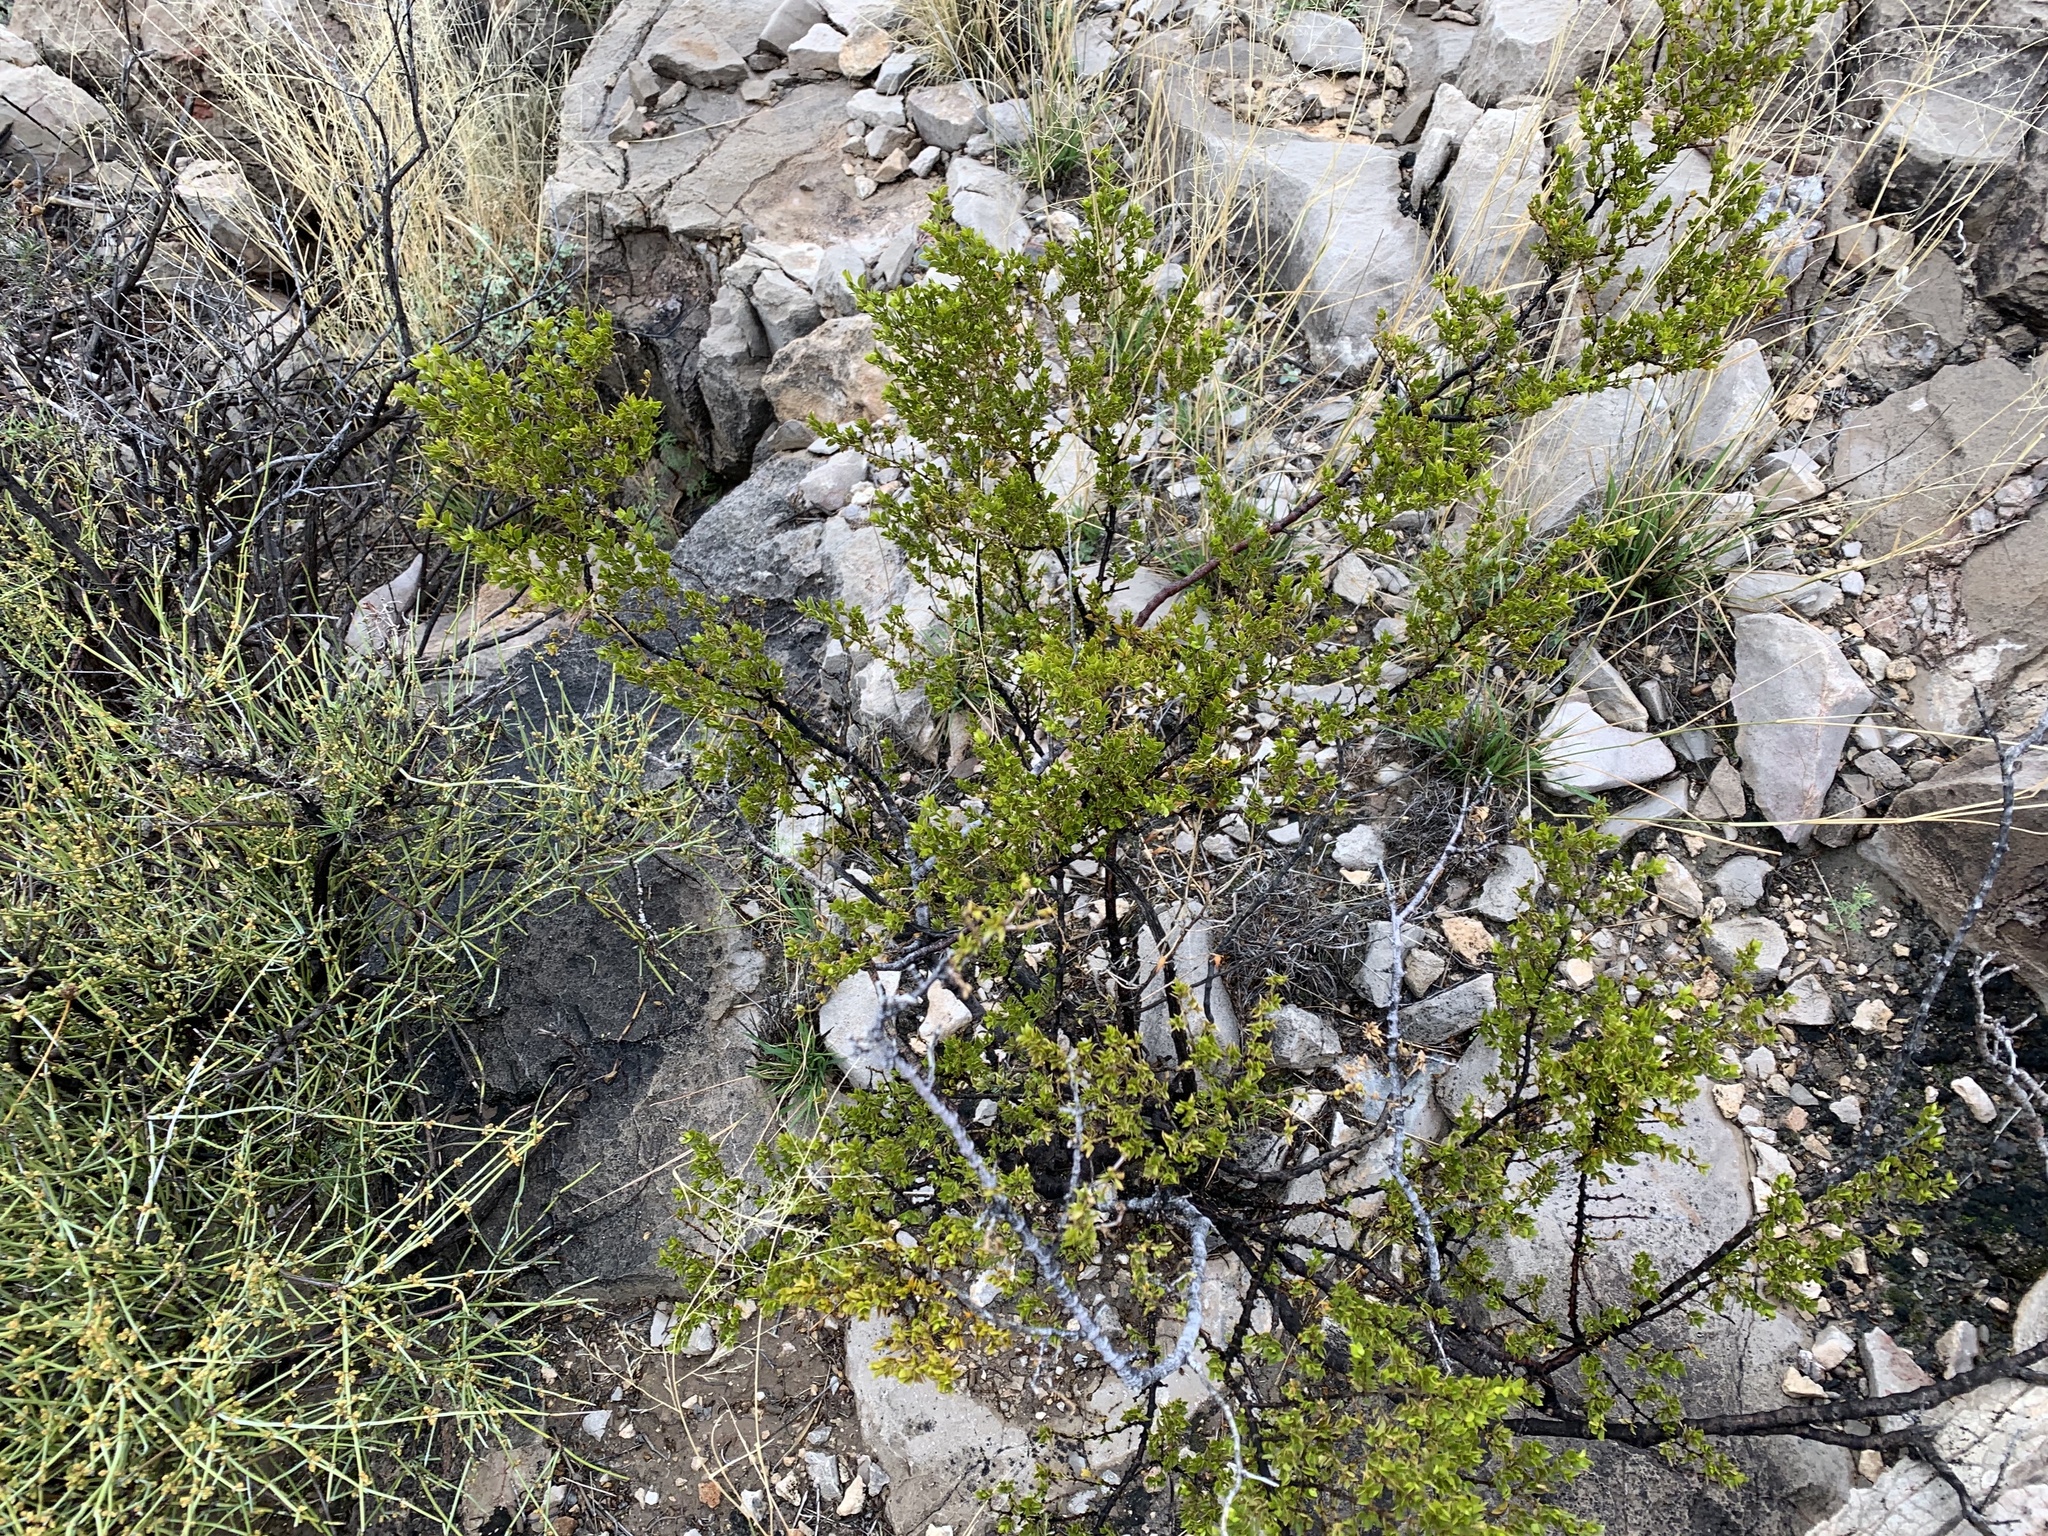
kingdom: Plantae
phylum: Tracheophyta
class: Magnoliopsida
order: Zygophyllales
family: Zygophyllaceae
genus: Larrea
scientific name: Larrea tridentata
